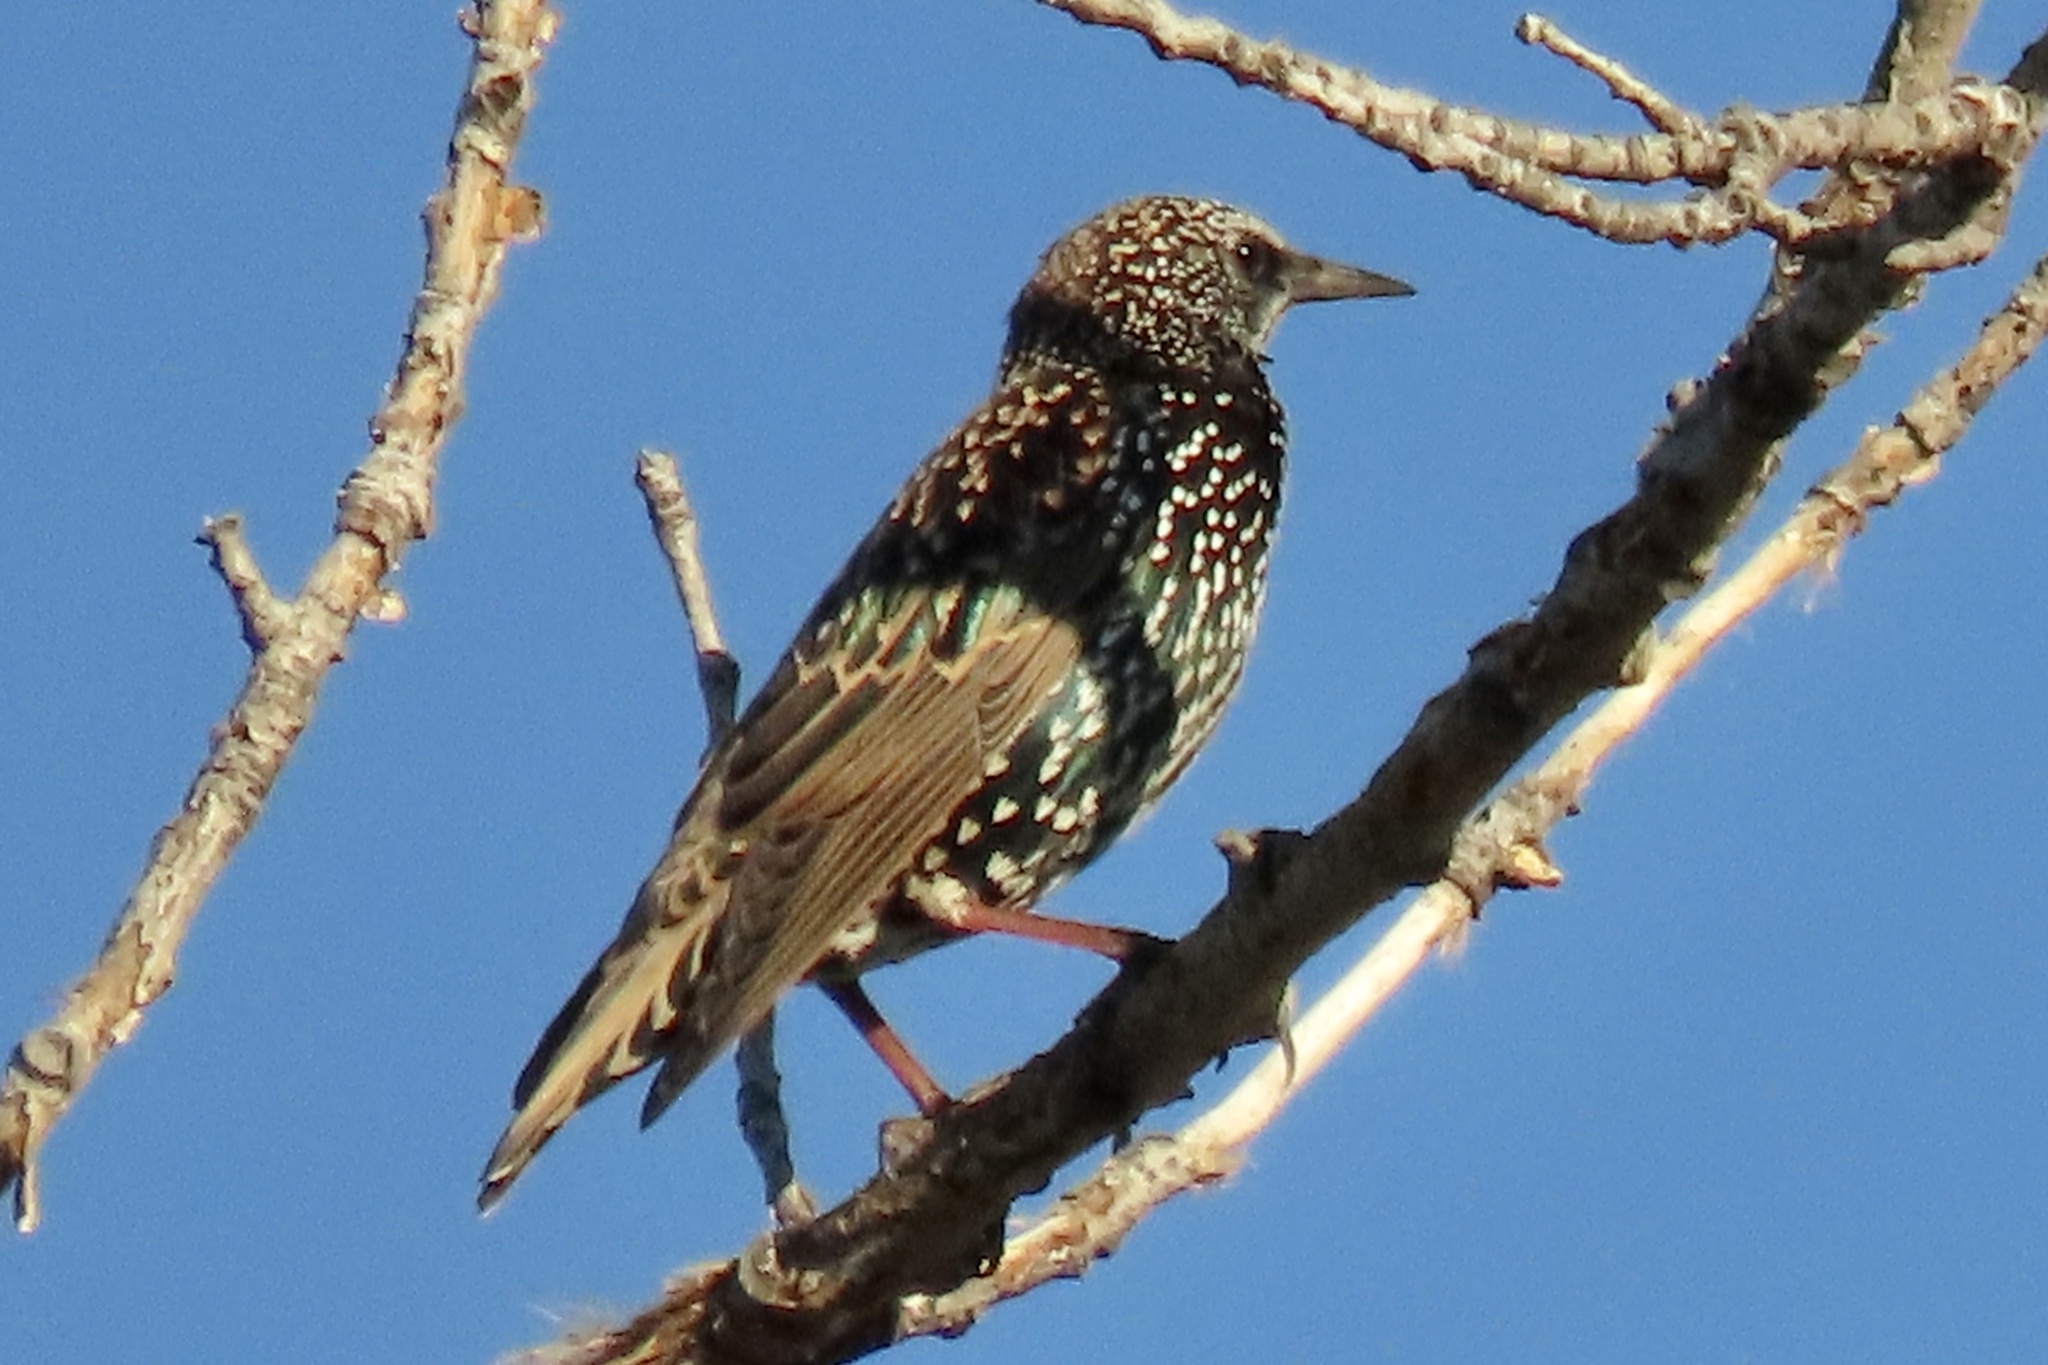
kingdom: Animalia
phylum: Chordata
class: Aves
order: Passeriformes
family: Sturnidae
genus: Sturnus
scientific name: Sturnus vulgaris
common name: Common starling
